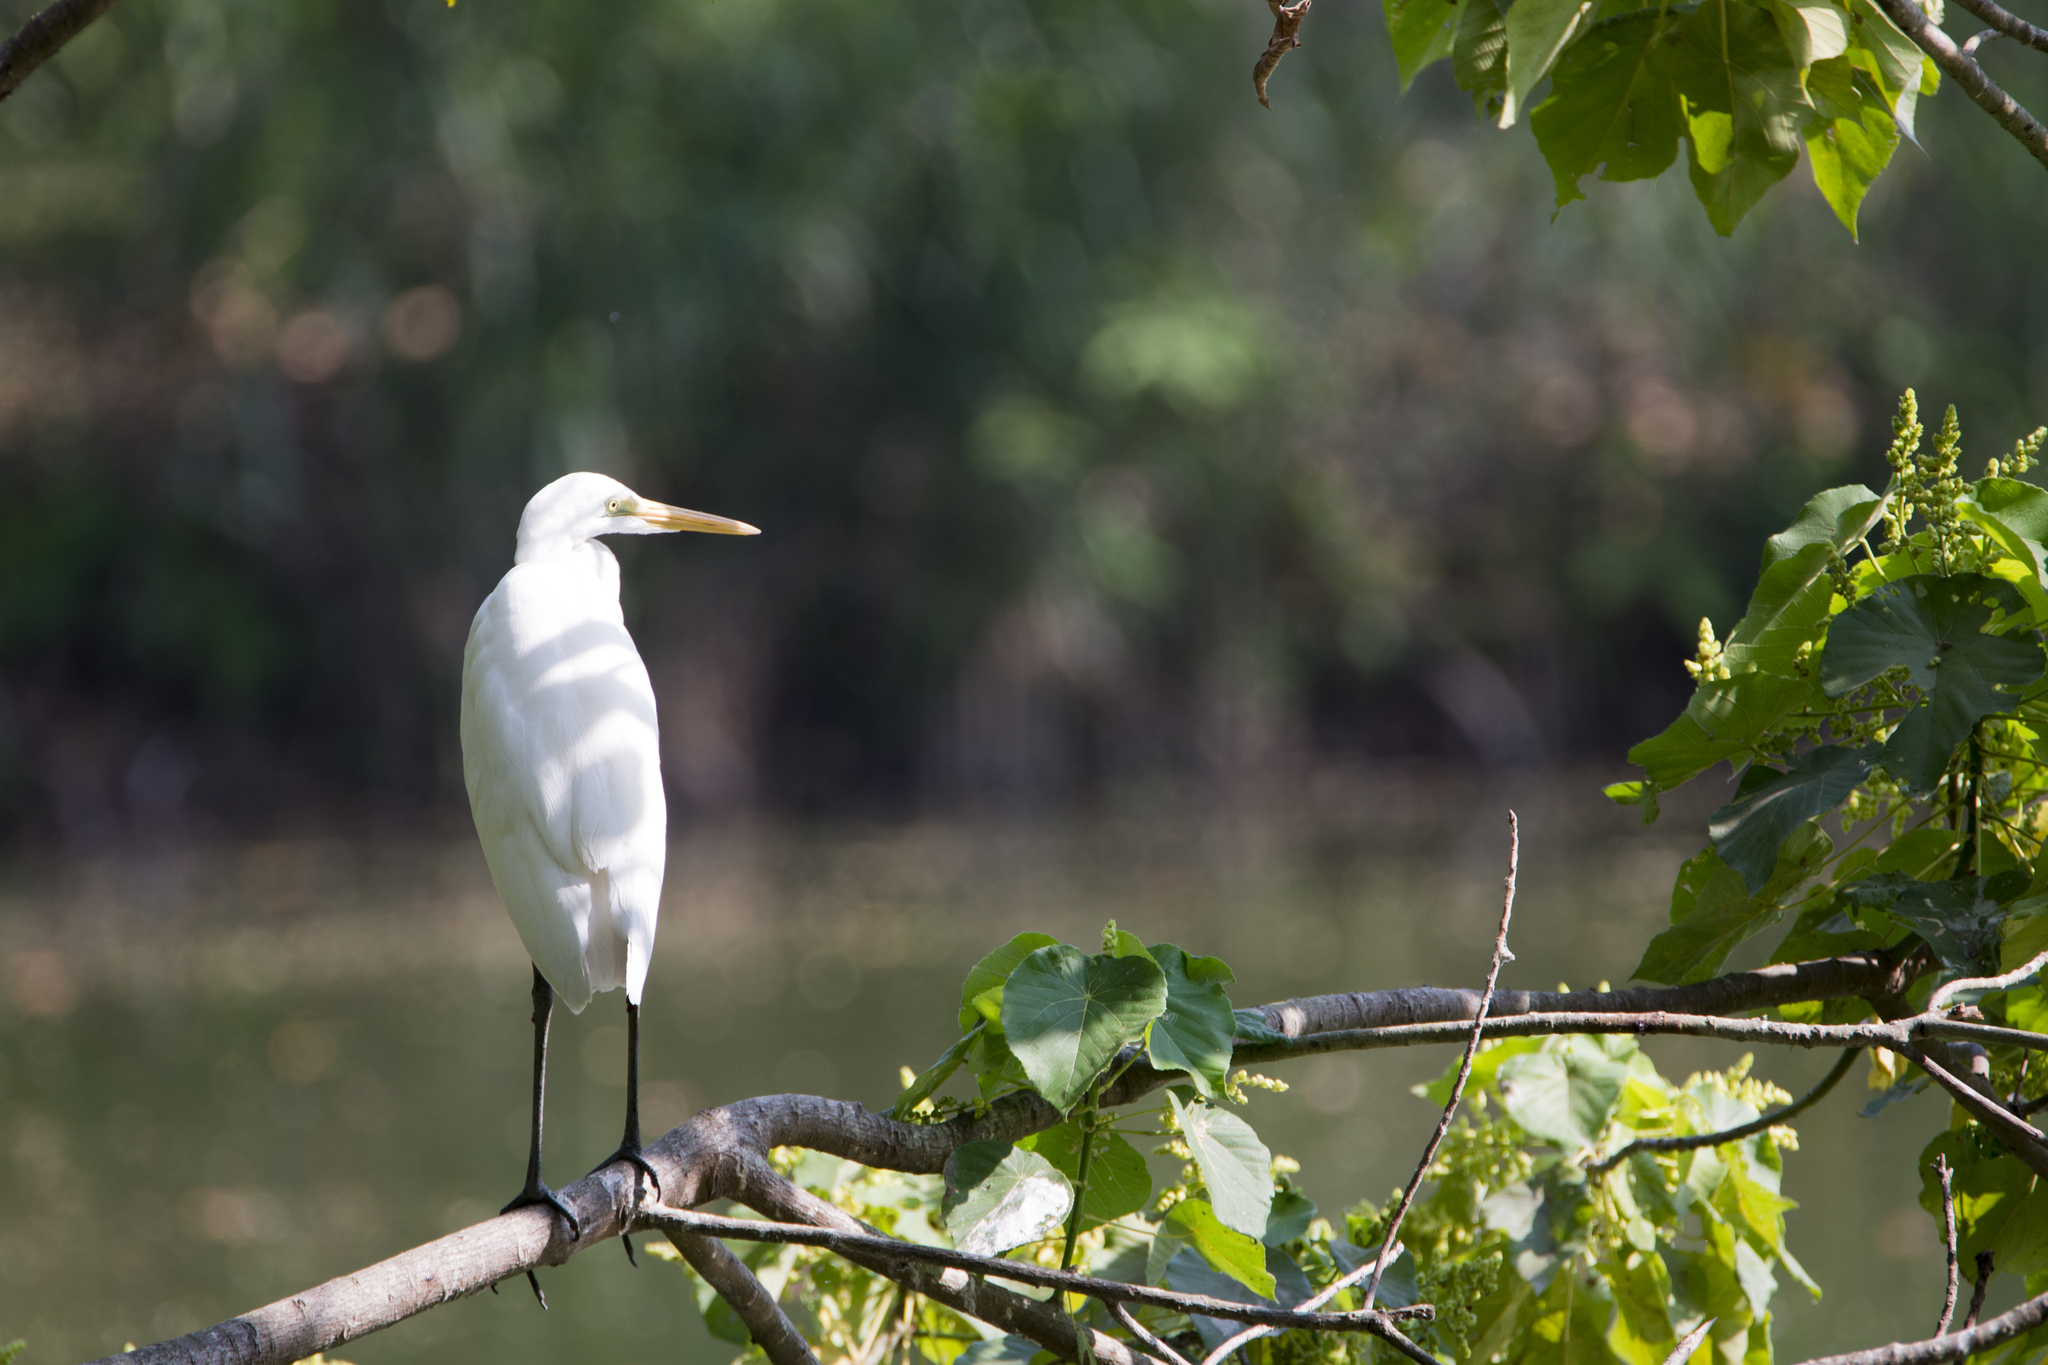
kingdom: Animalia
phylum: Chordata
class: Aves
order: Pelecaniformes
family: Ardeidae
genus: Ardea
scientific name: Ardea alba
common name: Great egret
